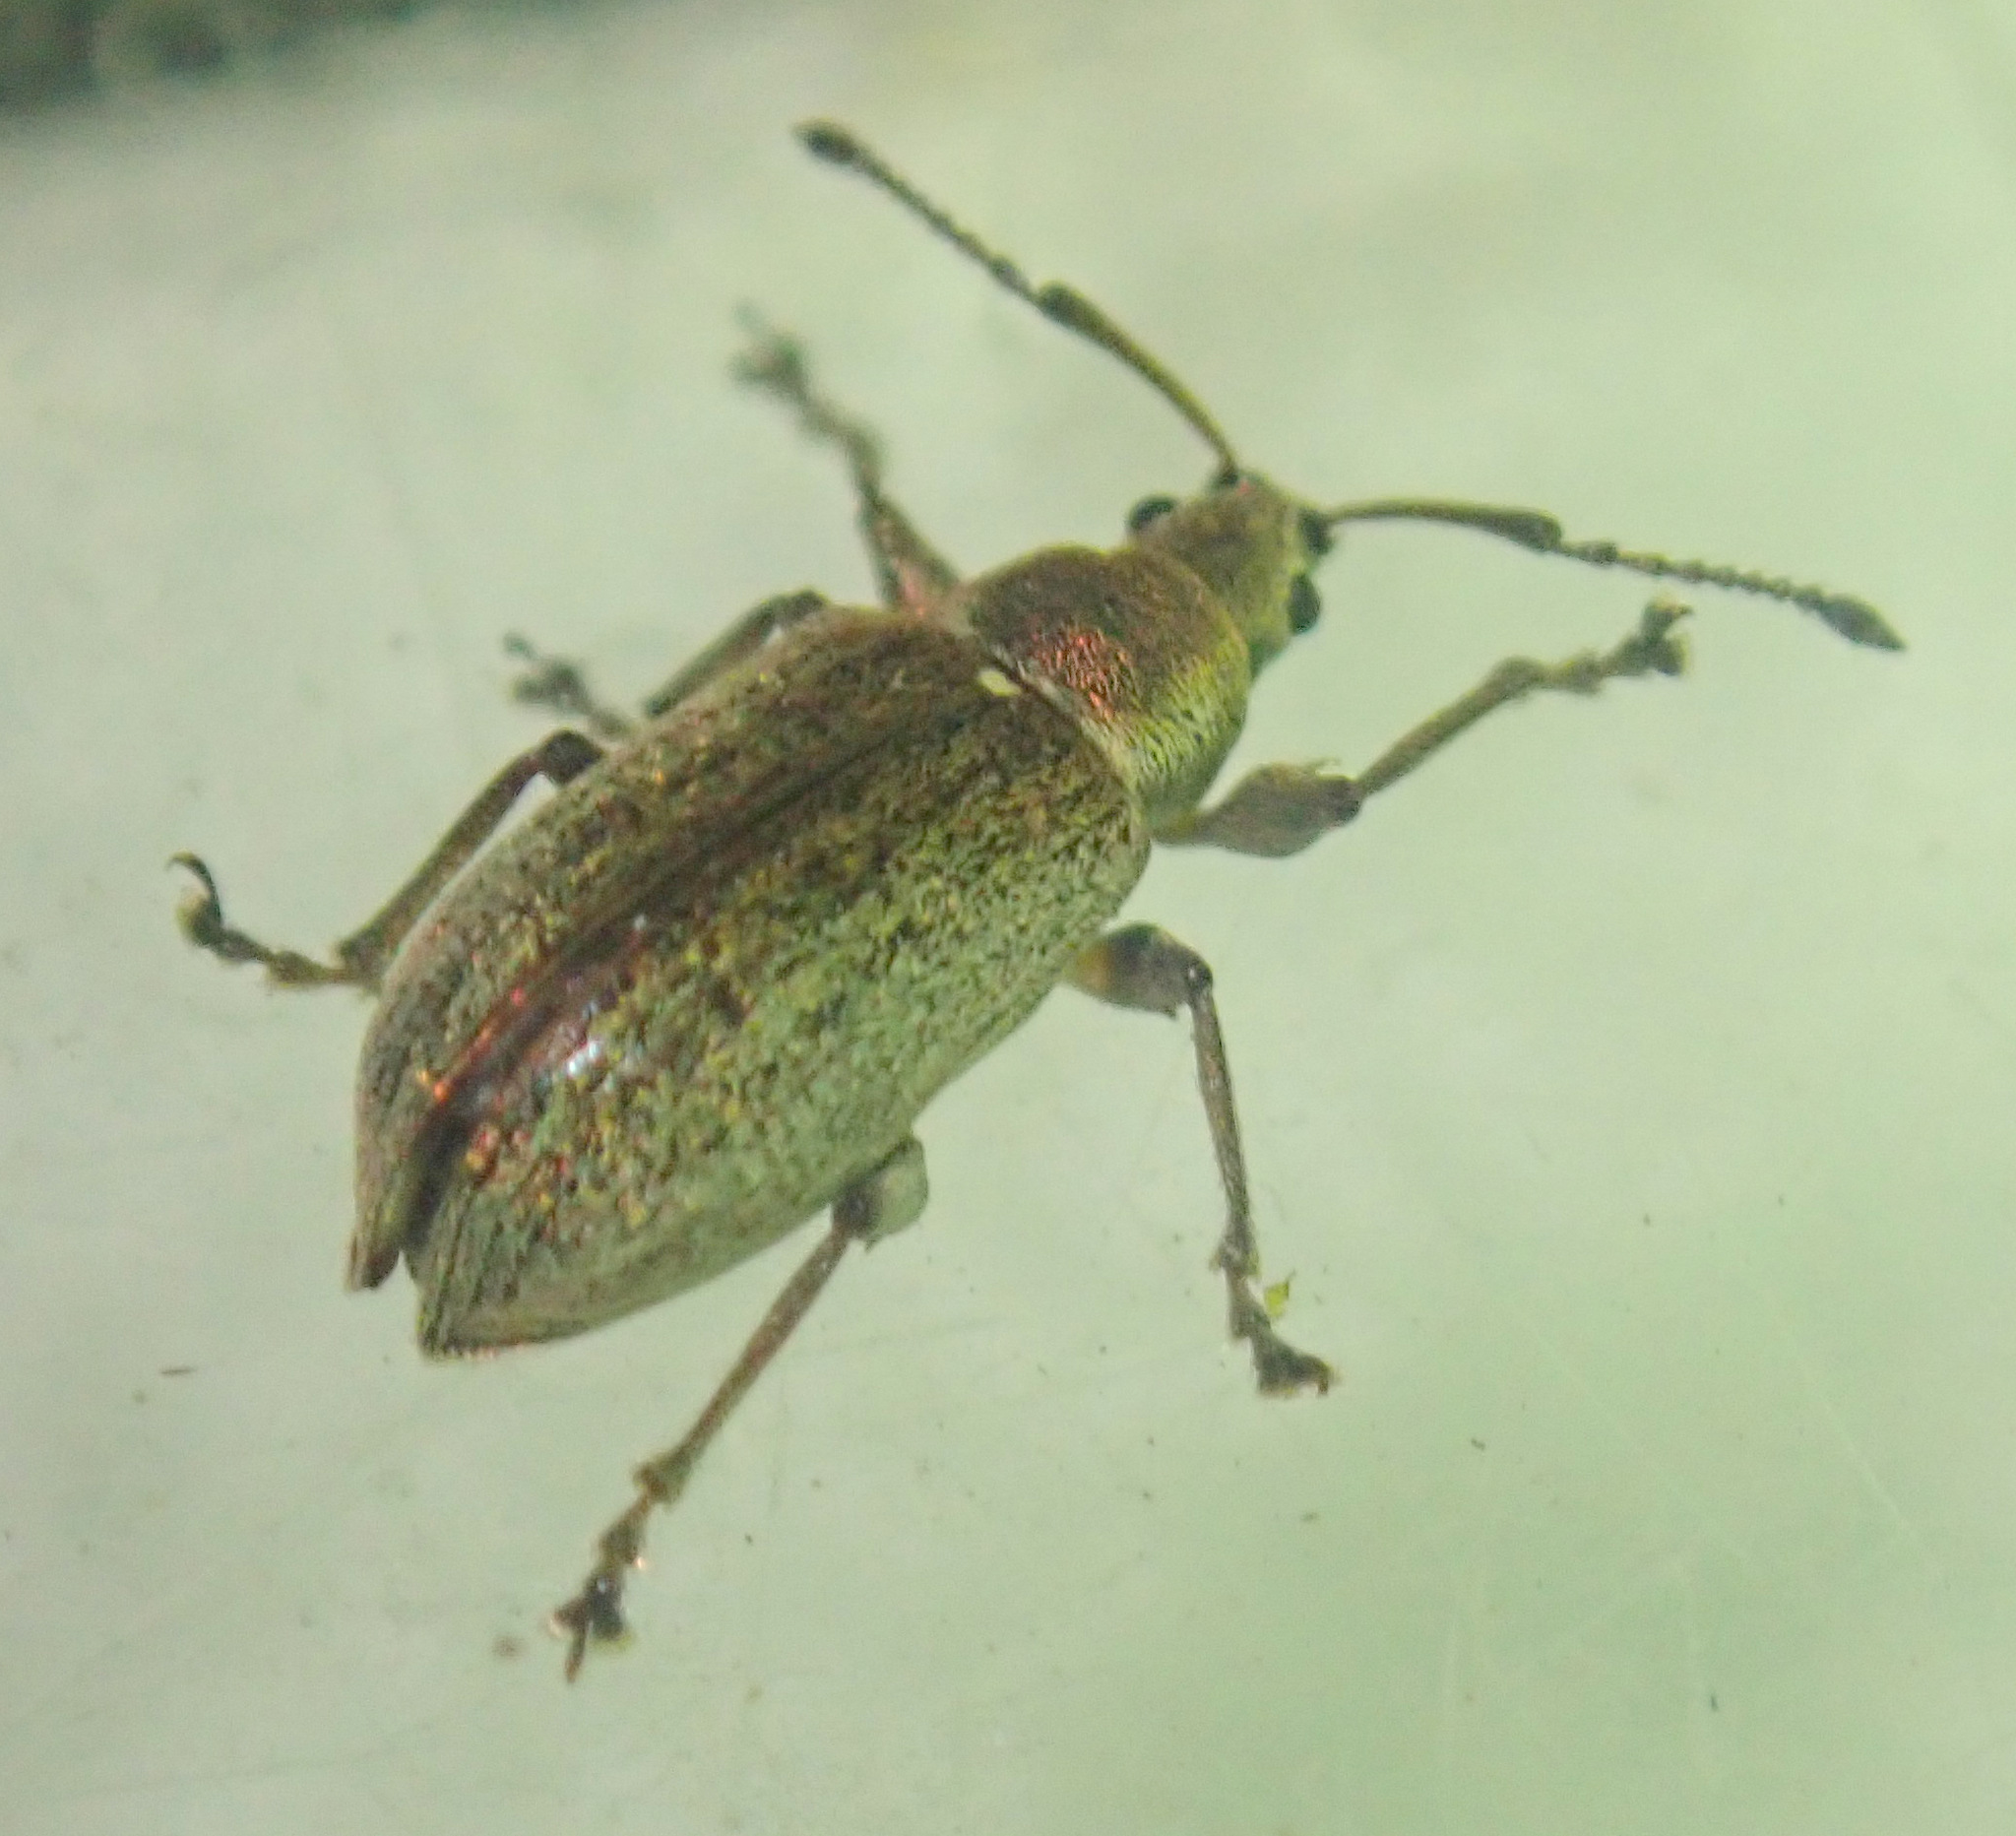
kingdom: Animalia
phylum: Arthropoda
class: Insecta
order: Coleoptera
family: Curculionidae
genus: Phyllobius
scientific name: Phyllobius pyri
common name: Common leaf weevil
